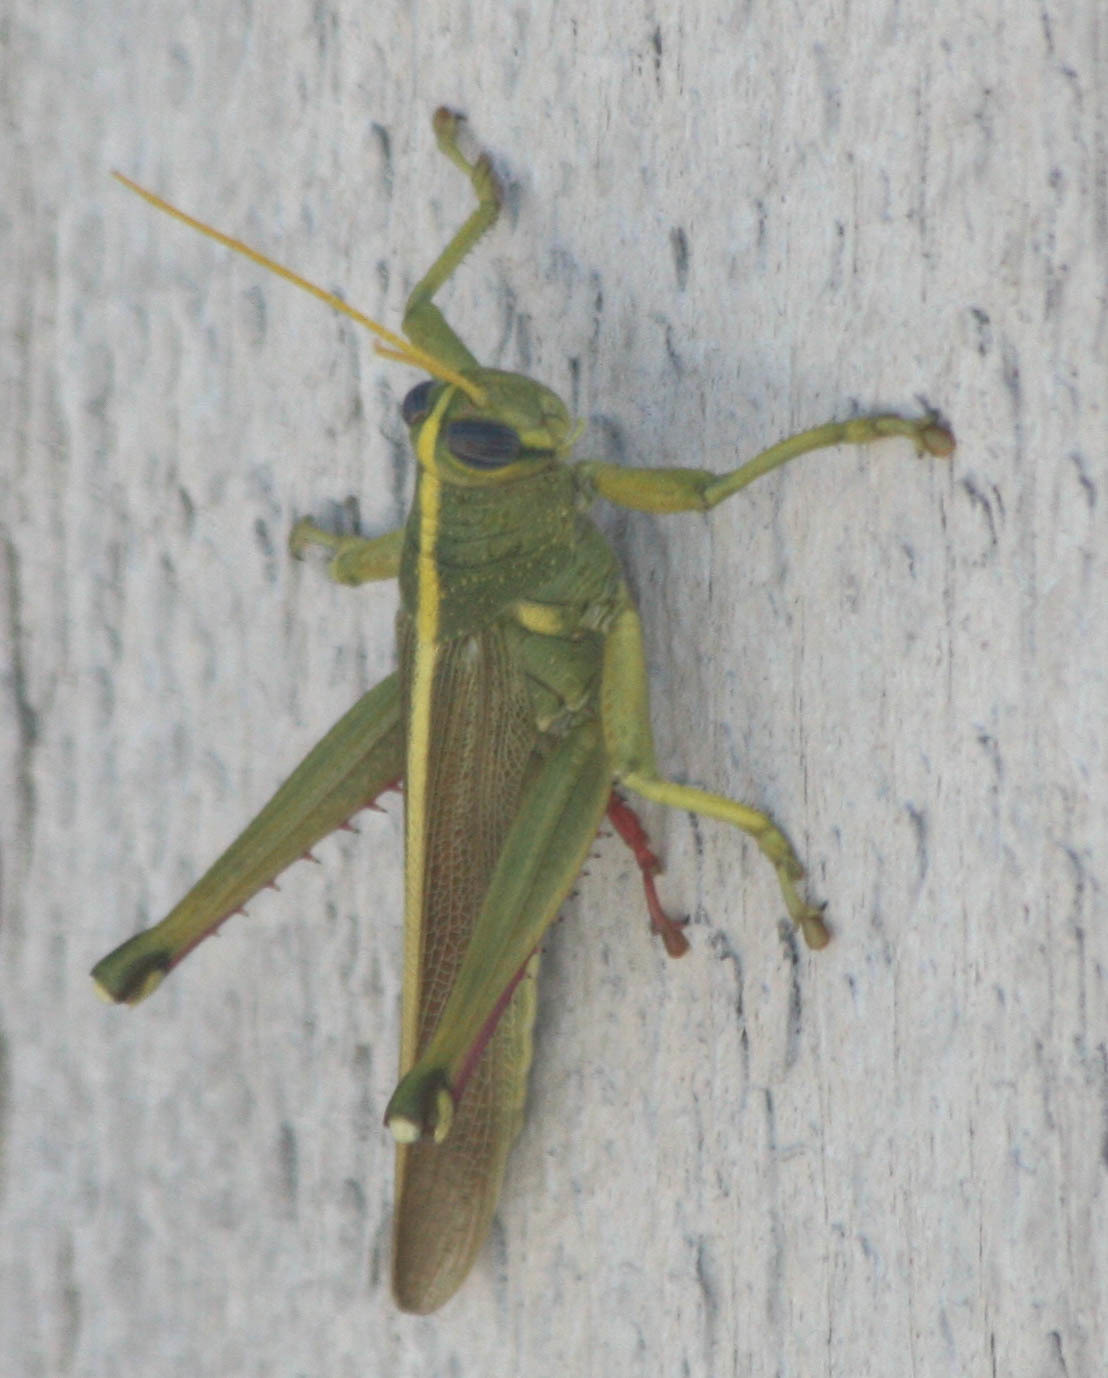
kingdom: Animalia
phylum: Arthropoda
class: Insecta
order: Orthoptera
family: Acrididae
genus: Schistocerca
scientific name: Schistocerca lineata
